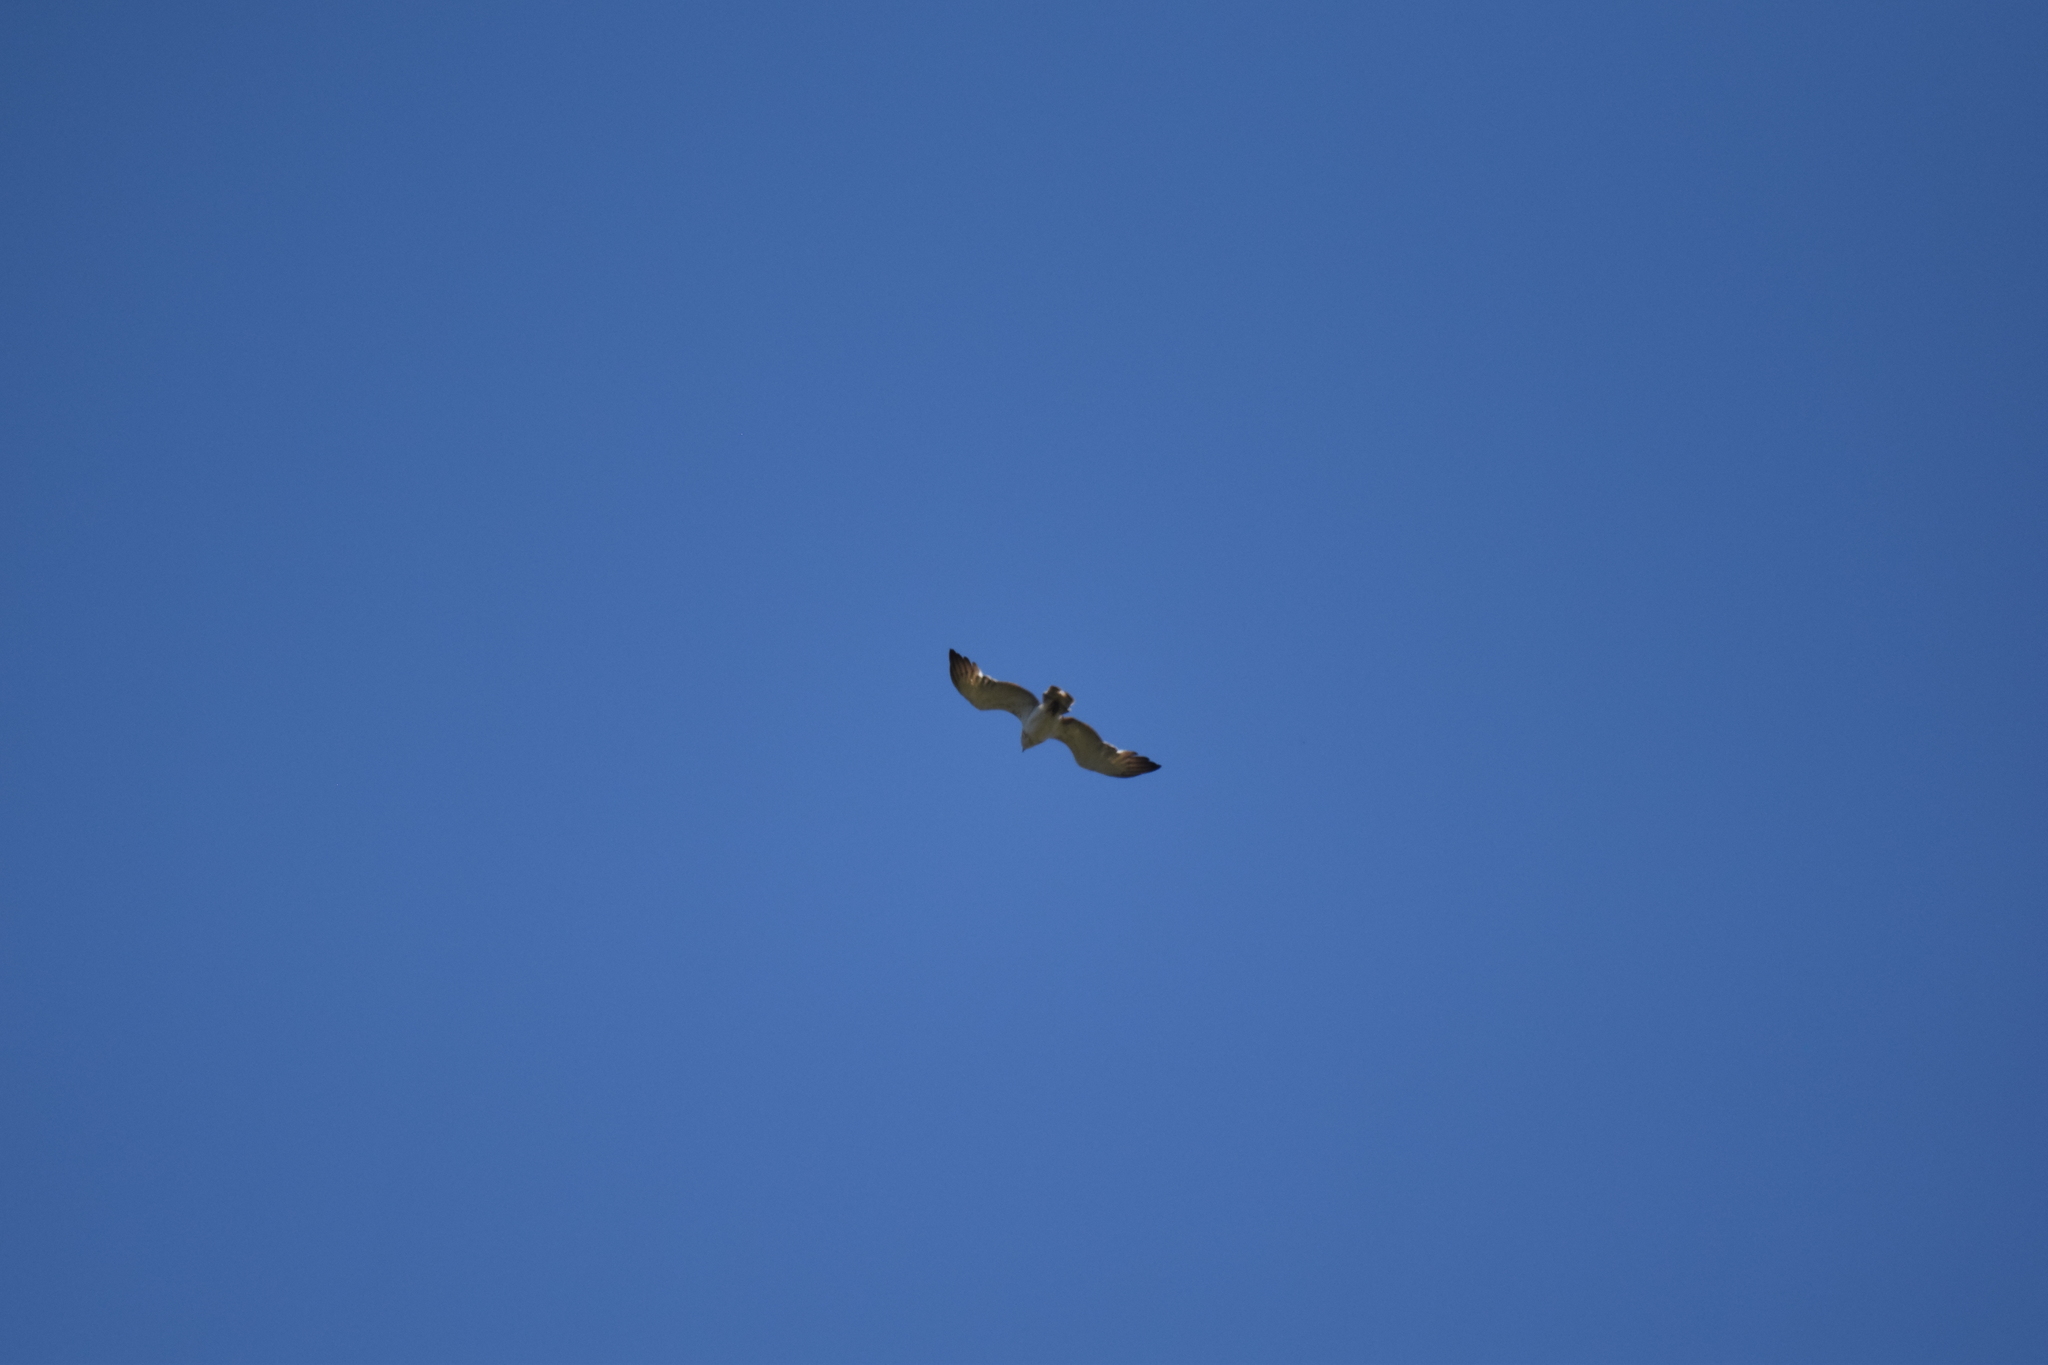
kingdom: Animalia
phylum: Chordata
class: Aves
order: Accipitriformes
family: Accipitridae
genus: Circaetus
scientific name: Circaetus gallicus
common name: Short-toed snake eagle
